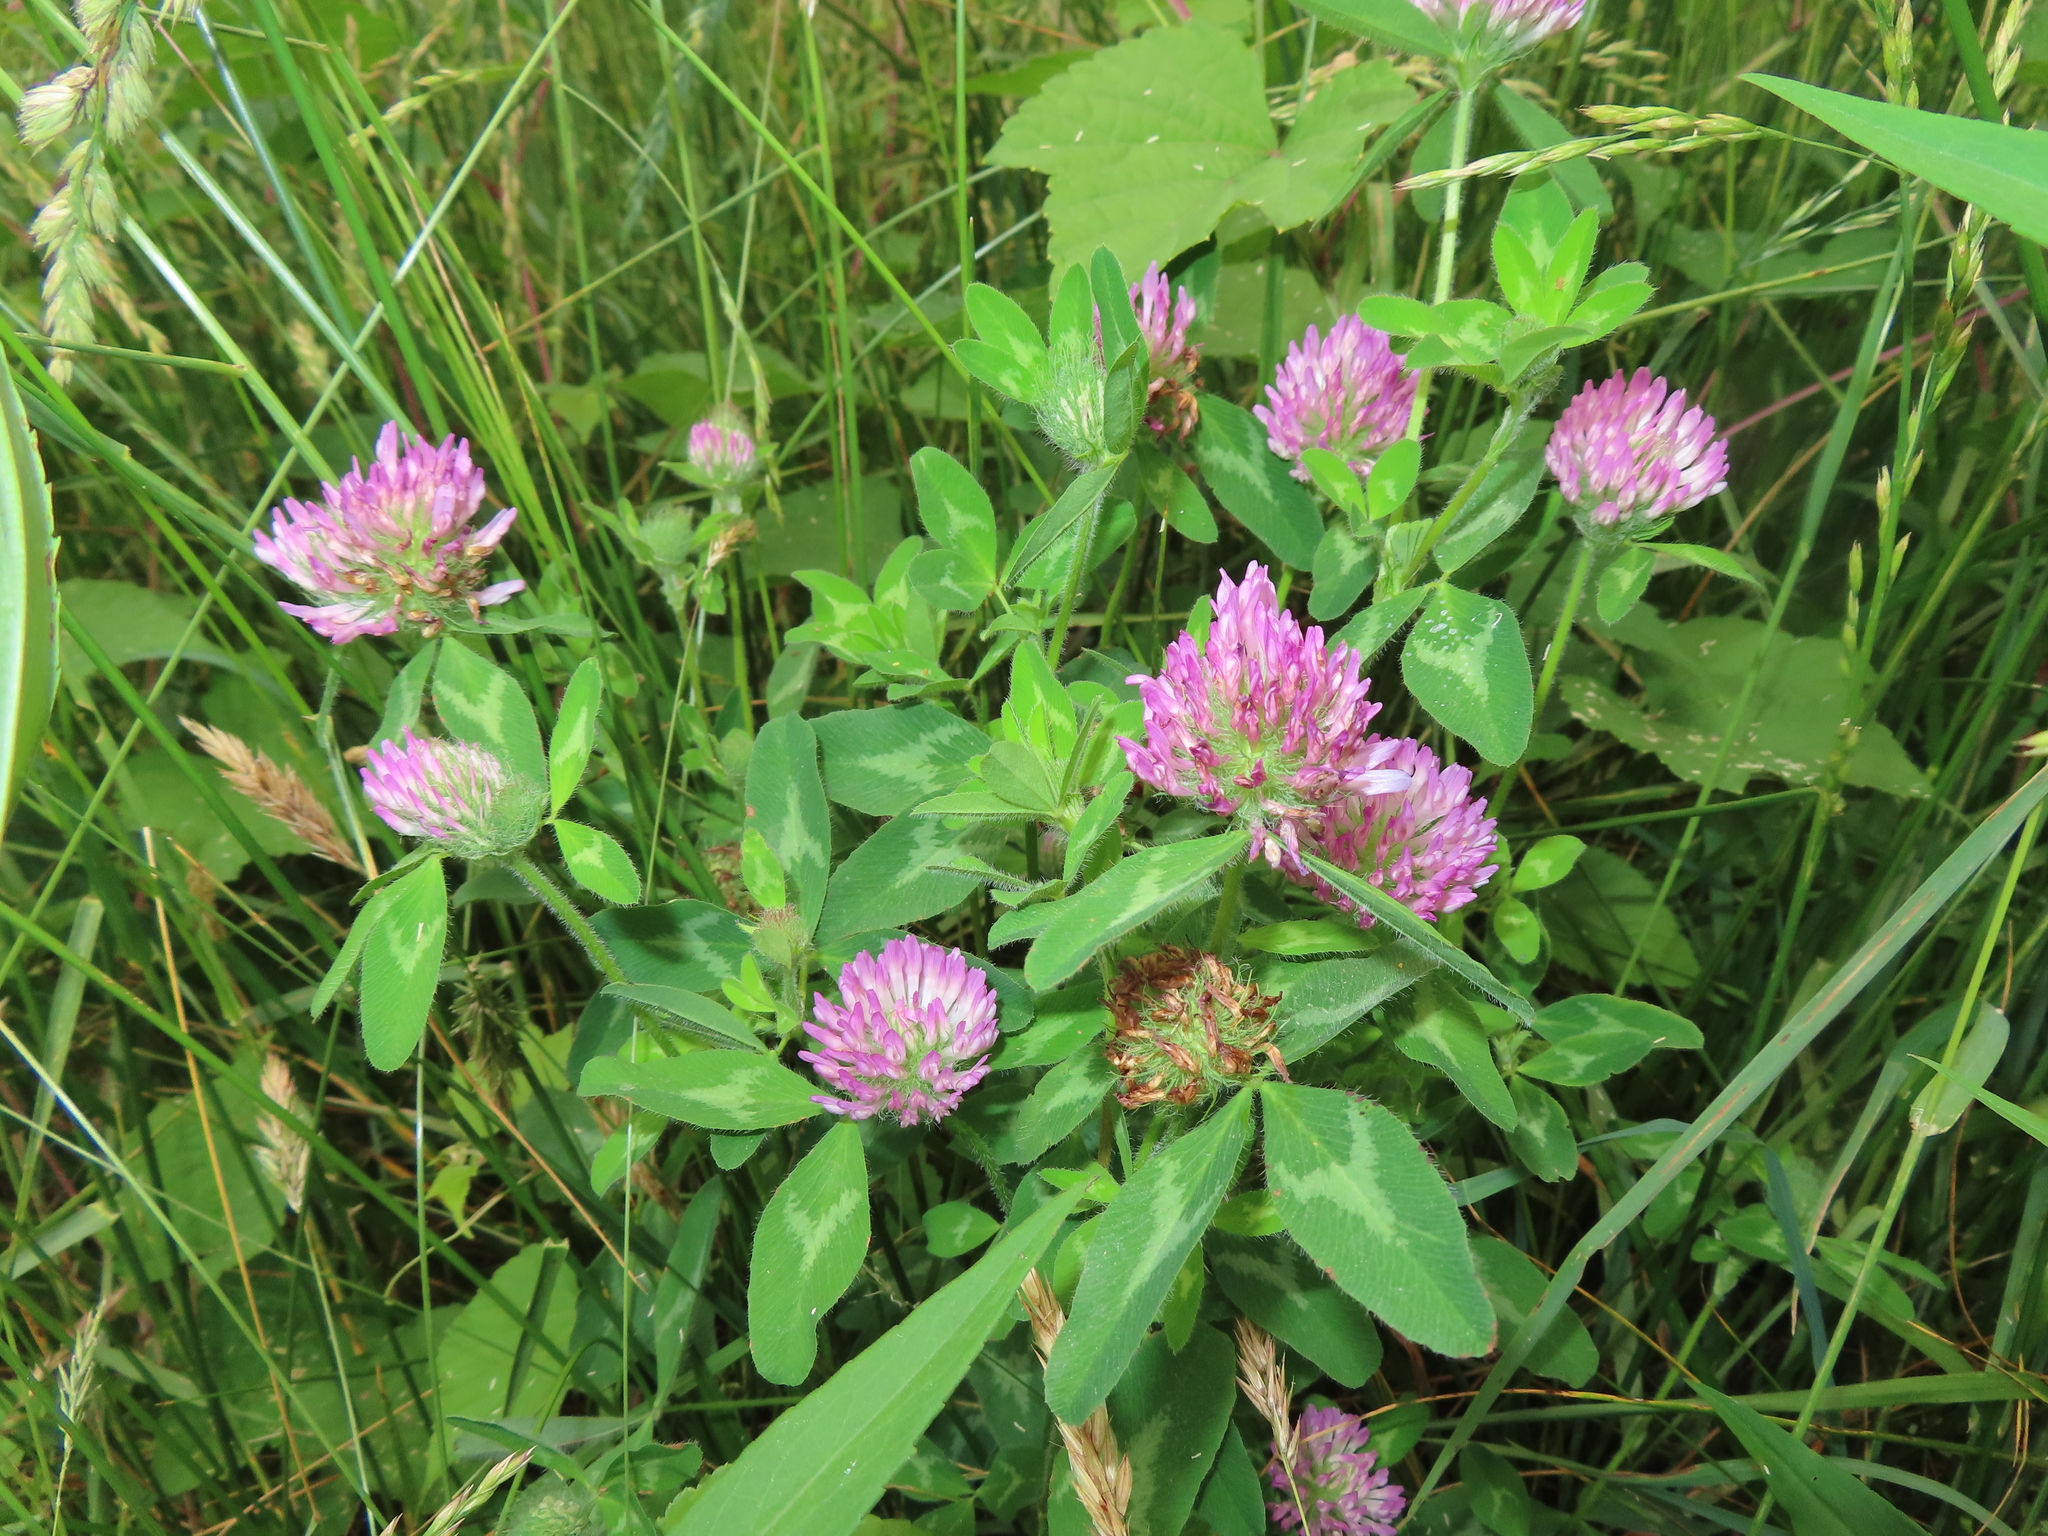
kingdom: Plantae
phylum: Tracheophyta
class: Magnoliopsida
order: Fabales
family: Fabaceae
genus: Trifolium
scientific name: Trifolium pratense
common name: Red clover
